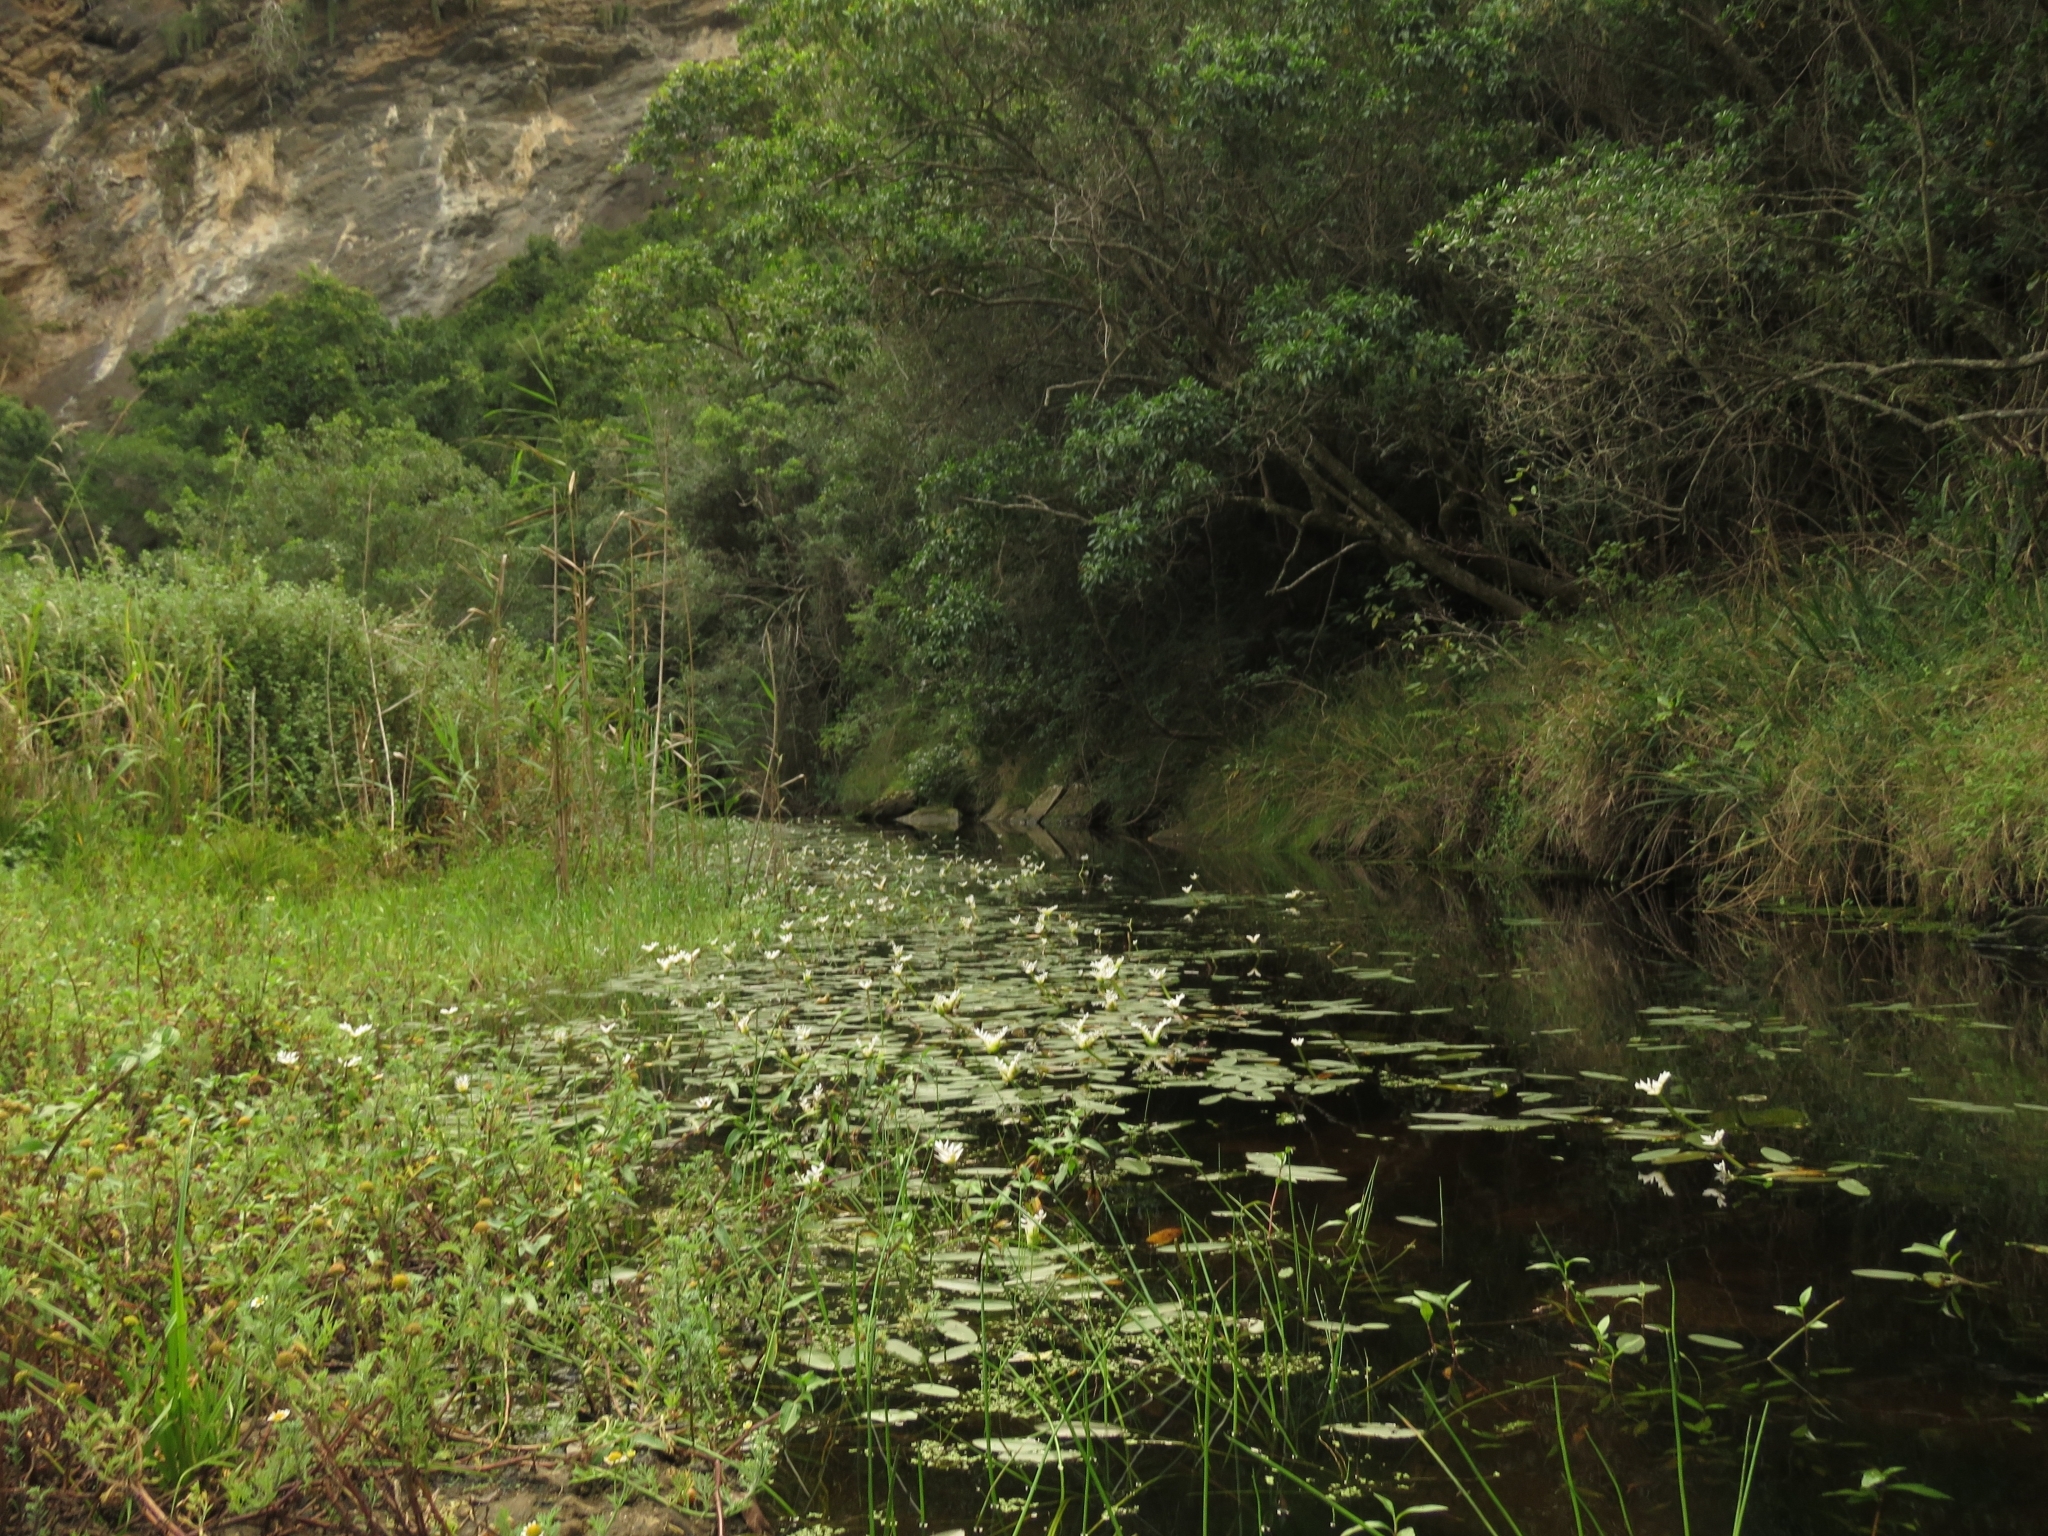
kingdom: Plantae
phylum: Tracheophyta
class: Liliopsida
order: Alismatales
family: Aponogetonaceae
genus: Aponogeton
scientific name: Aponogeton distachyos
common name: Cape-pondweed
